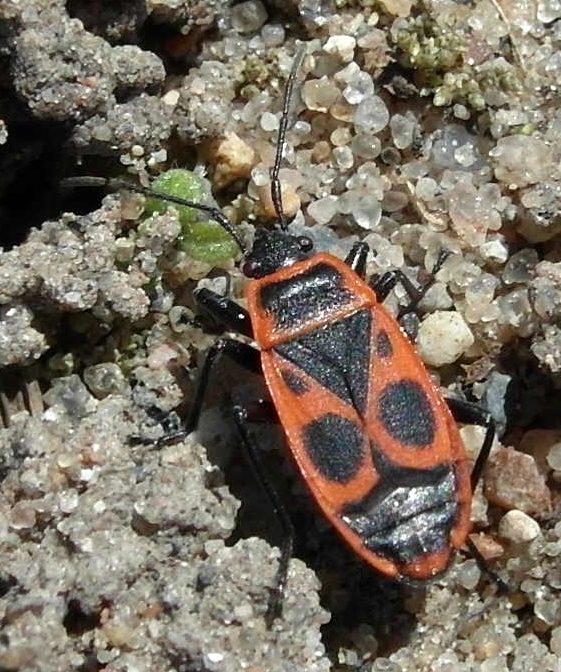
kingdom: Animalia
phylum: Arthropoda
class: Insecta
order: Hemiptera
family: Pyrrhocoridae
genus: Pyrrhocoris
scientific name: Pyrrhocoris apterus
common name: Firebug
